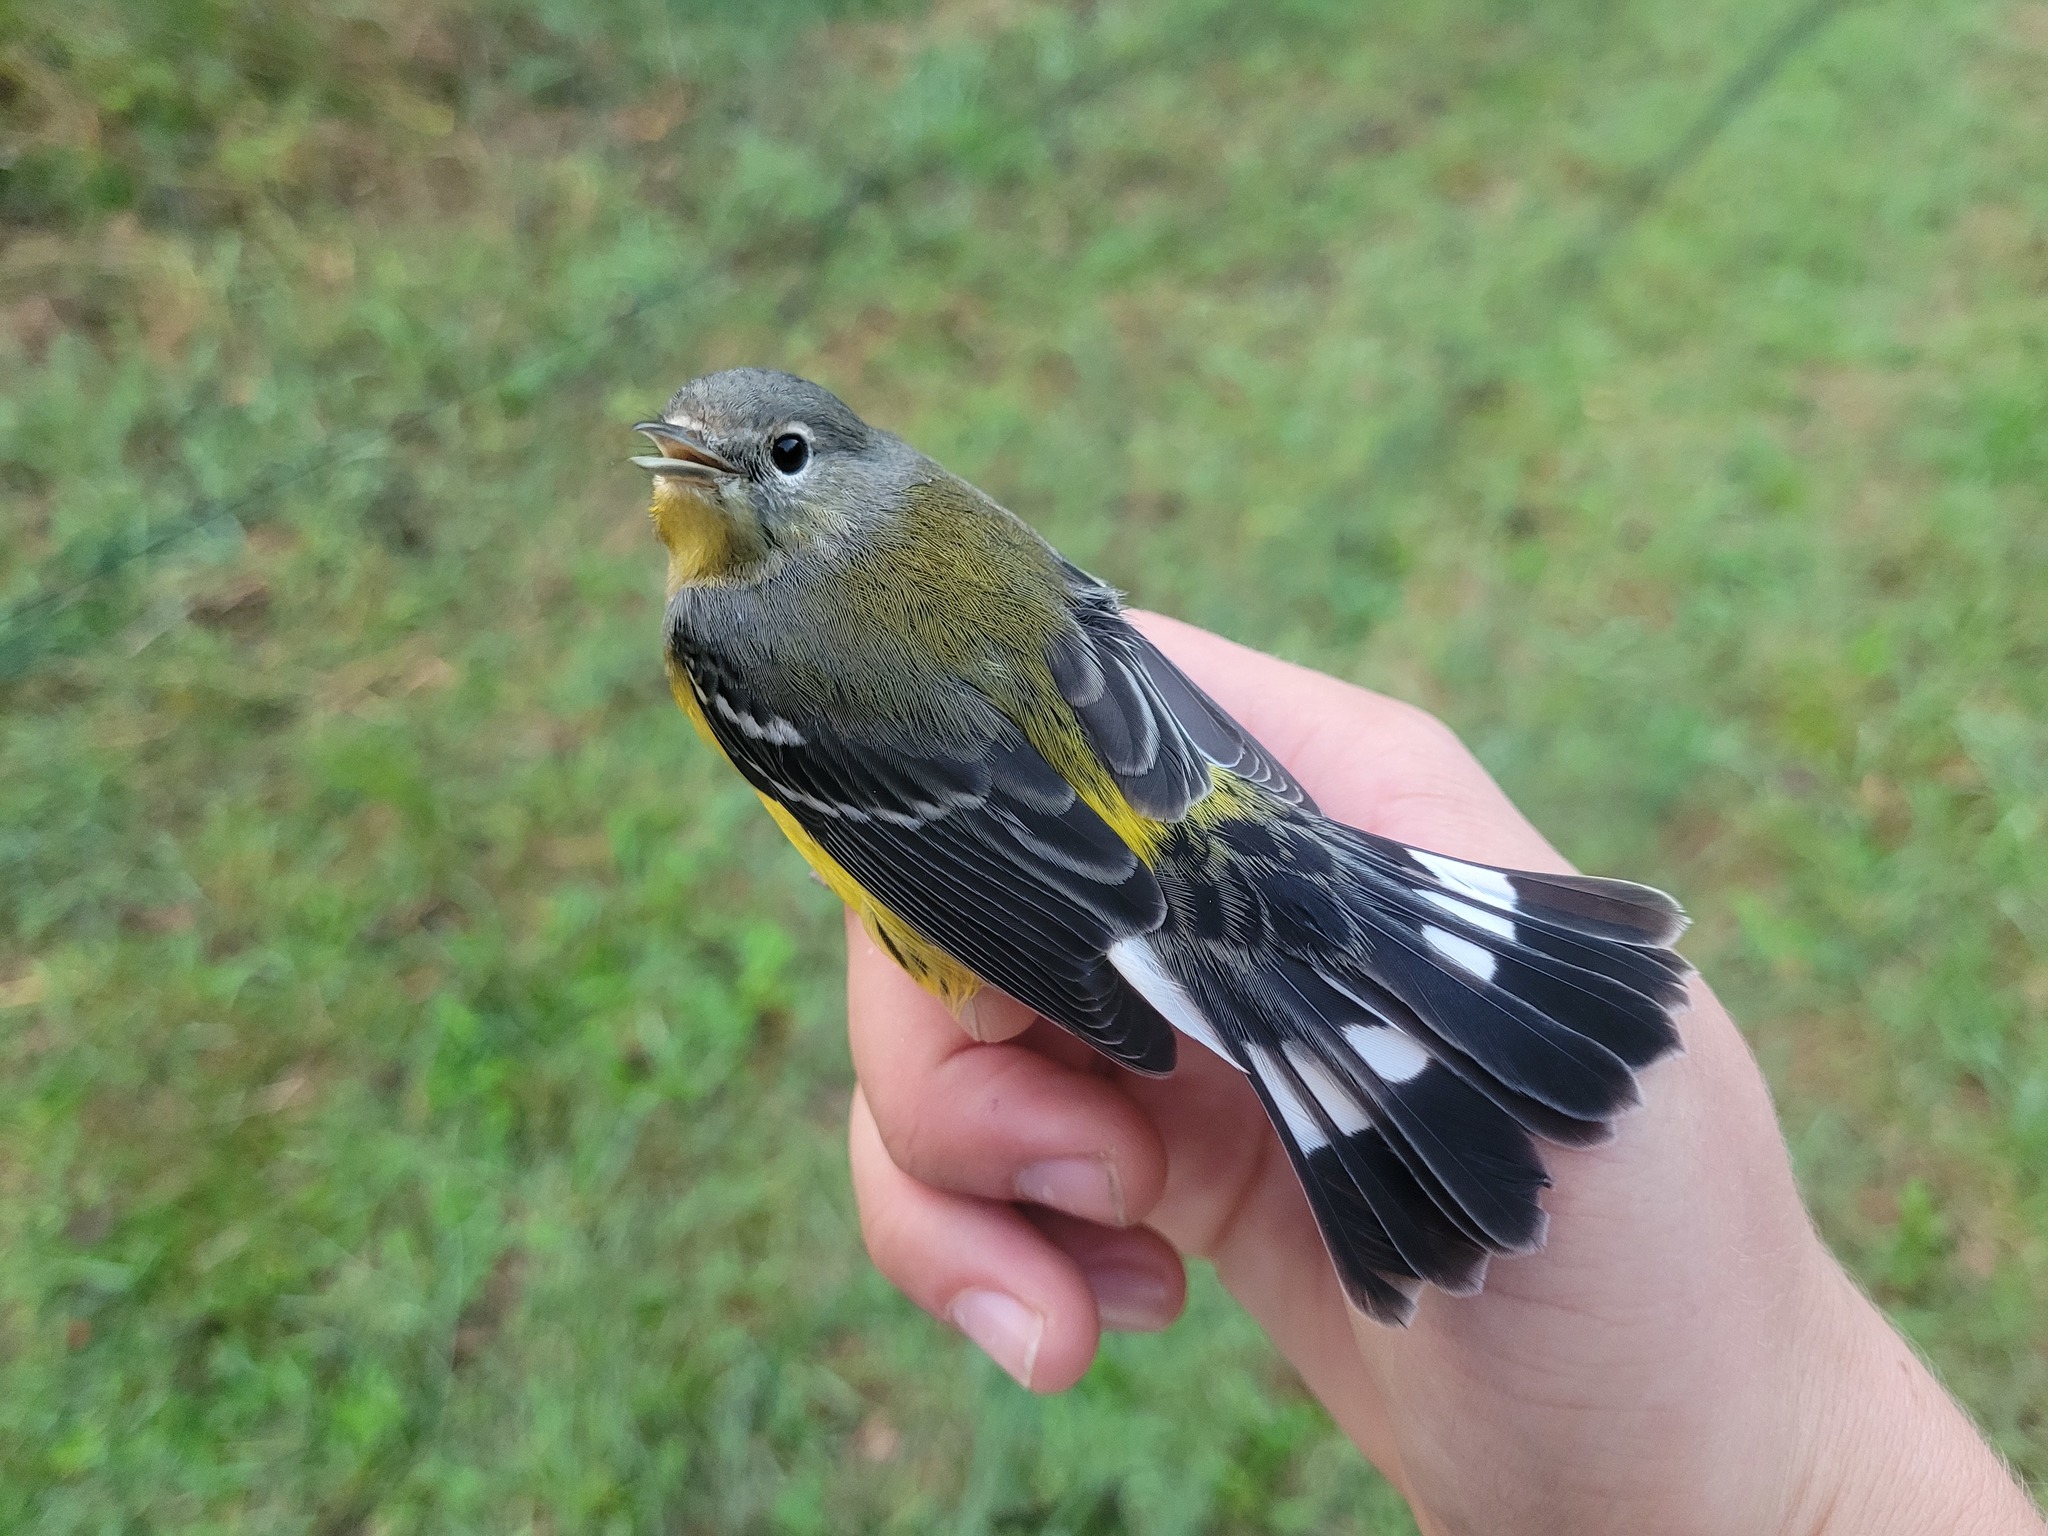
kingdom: Animalia
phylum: Chordata
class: Aves
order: Passeriformes
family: Parulidae
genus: Setophaga
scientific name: Setophaga magnolia
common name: Magnolia warbler
